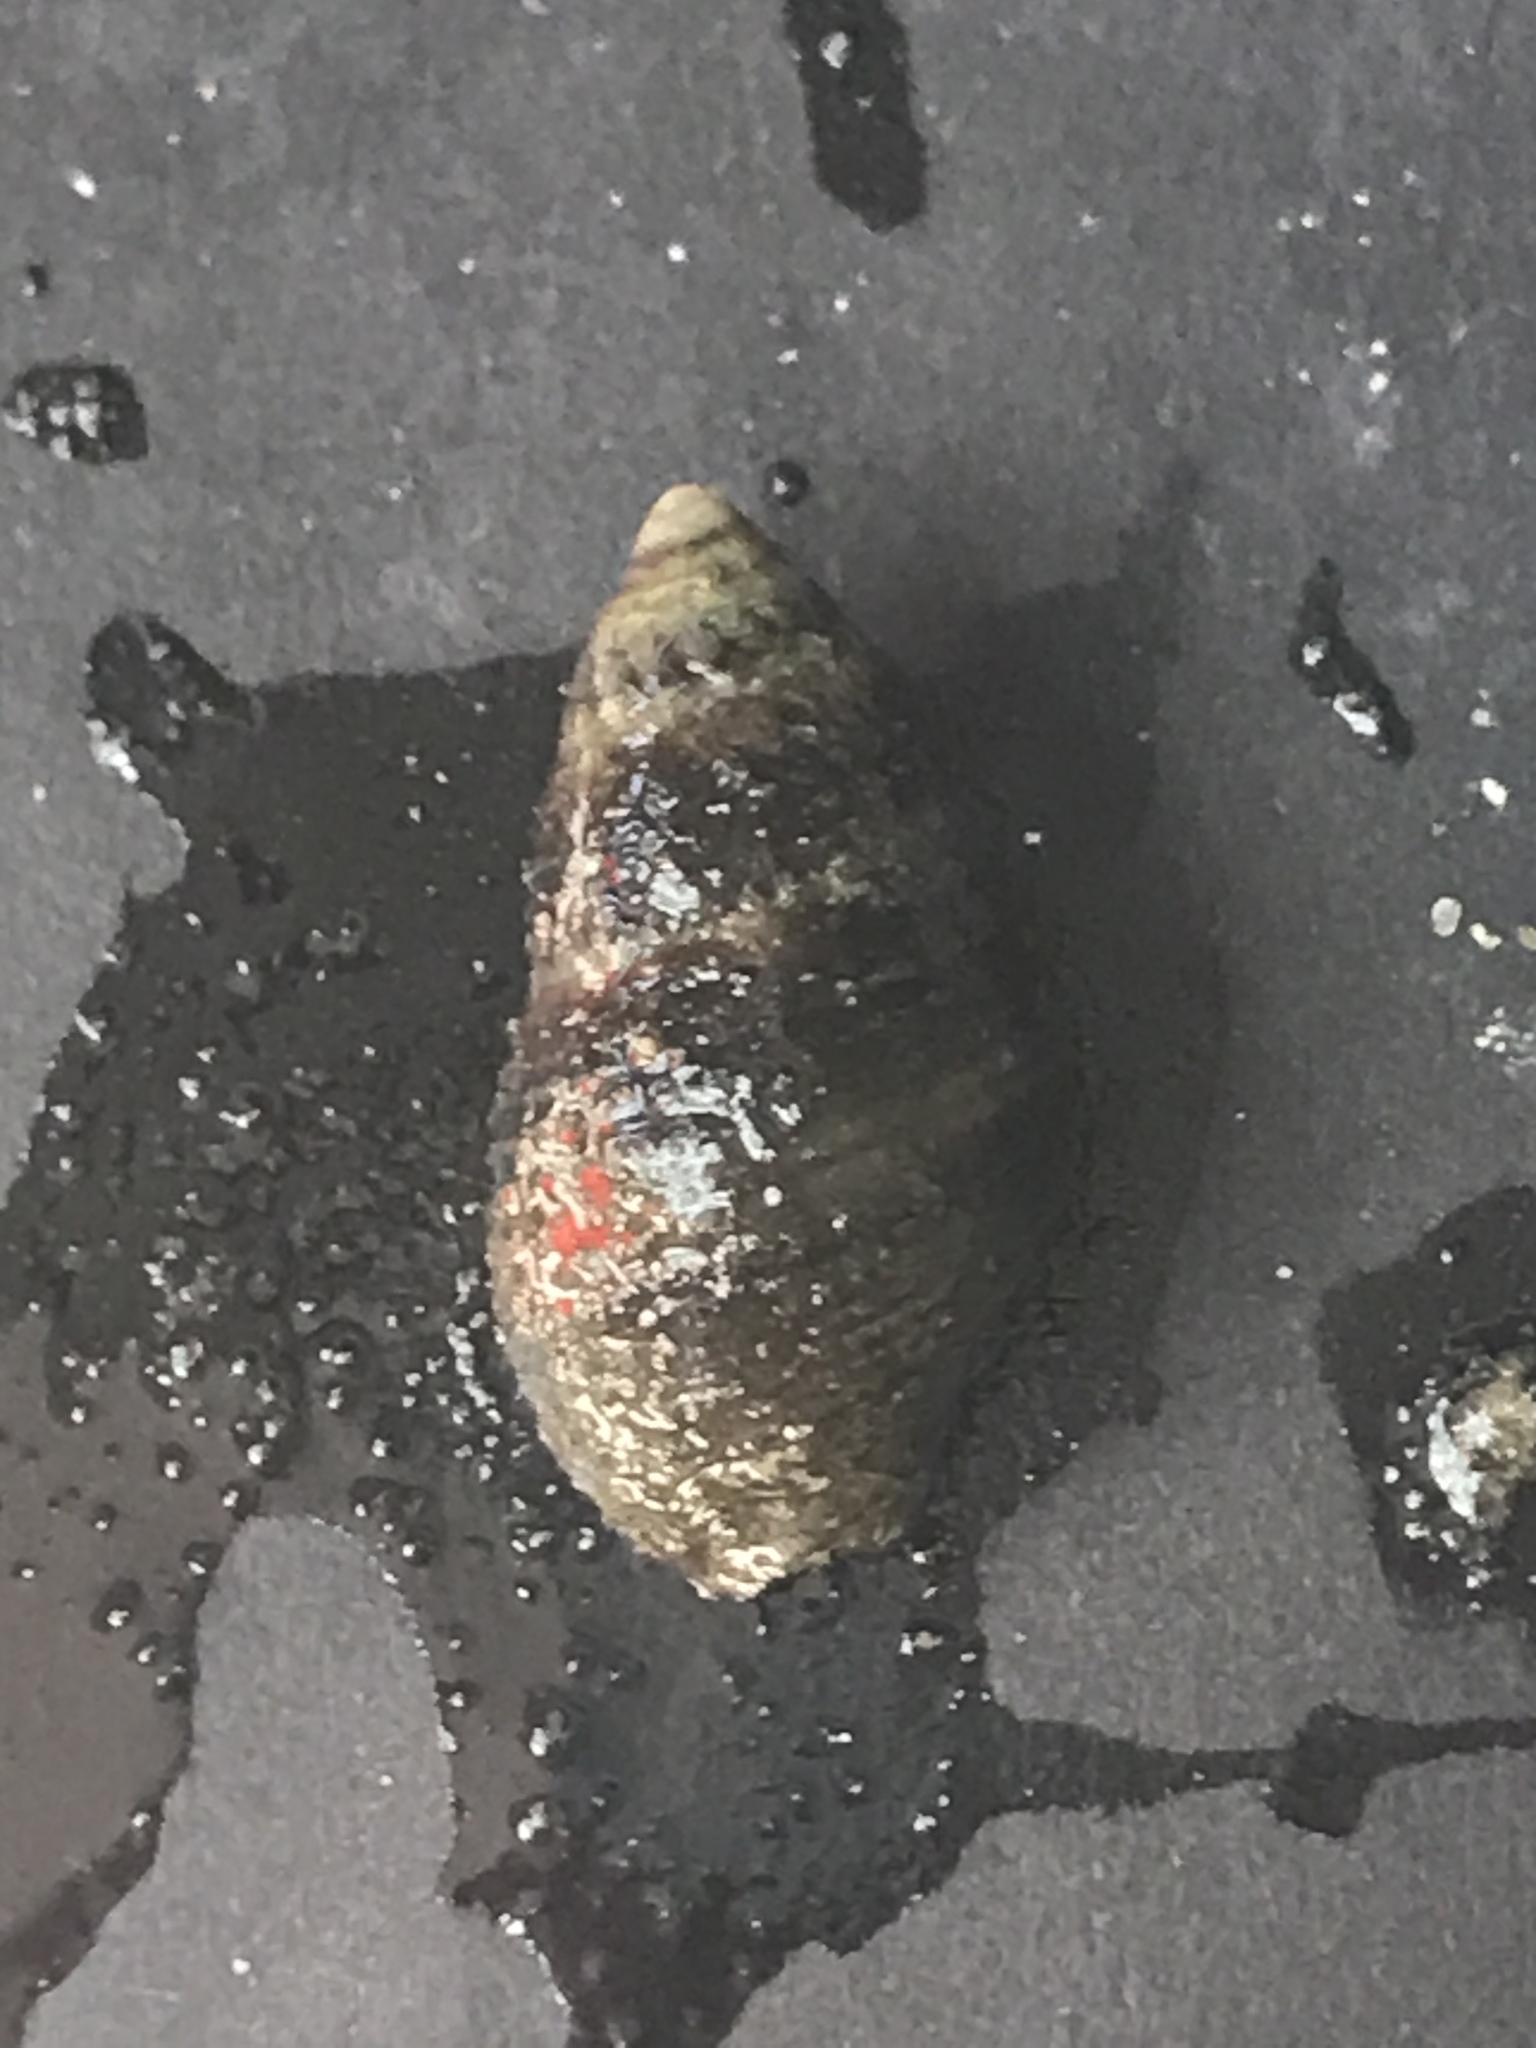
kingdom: Animalia
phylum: Mollusca
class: Gastropoda
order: Neogastropoda
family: Nassariidae
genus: Ilyanassa
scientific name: Ilyanassa obsoleta
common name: Eastern mudsnail
